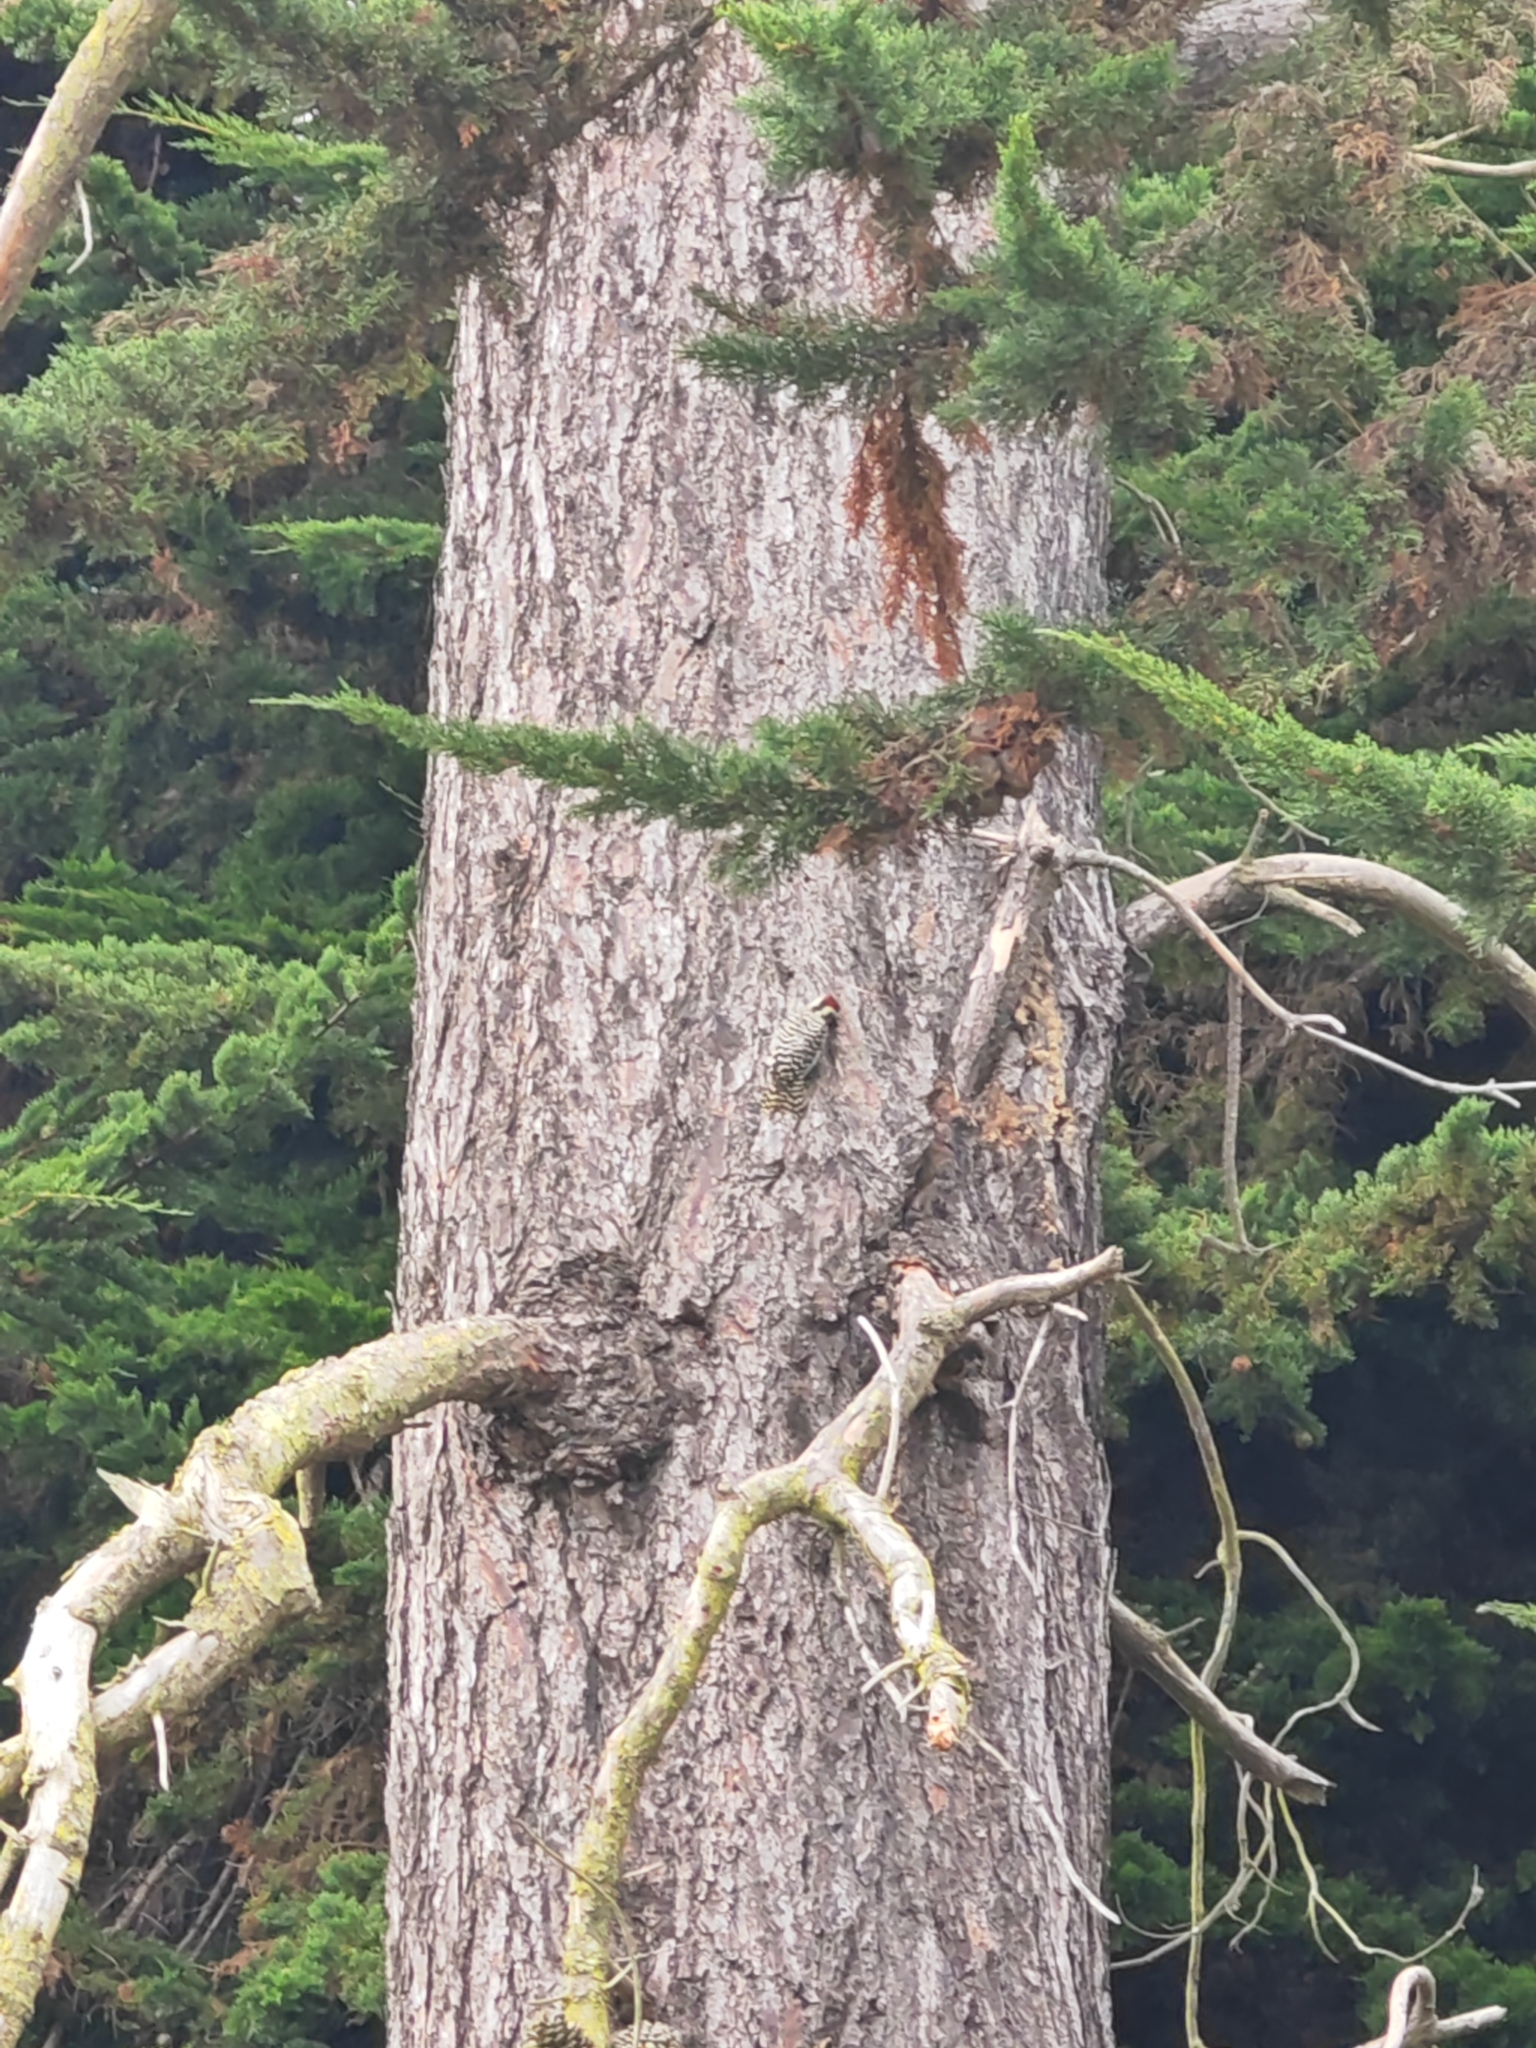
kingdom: Animalia
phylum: Chordata
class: Aves
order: Piciformes
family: Picidae
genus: Veniliornis
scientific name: Veniliornis lignarius
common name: Striped woodpecker
